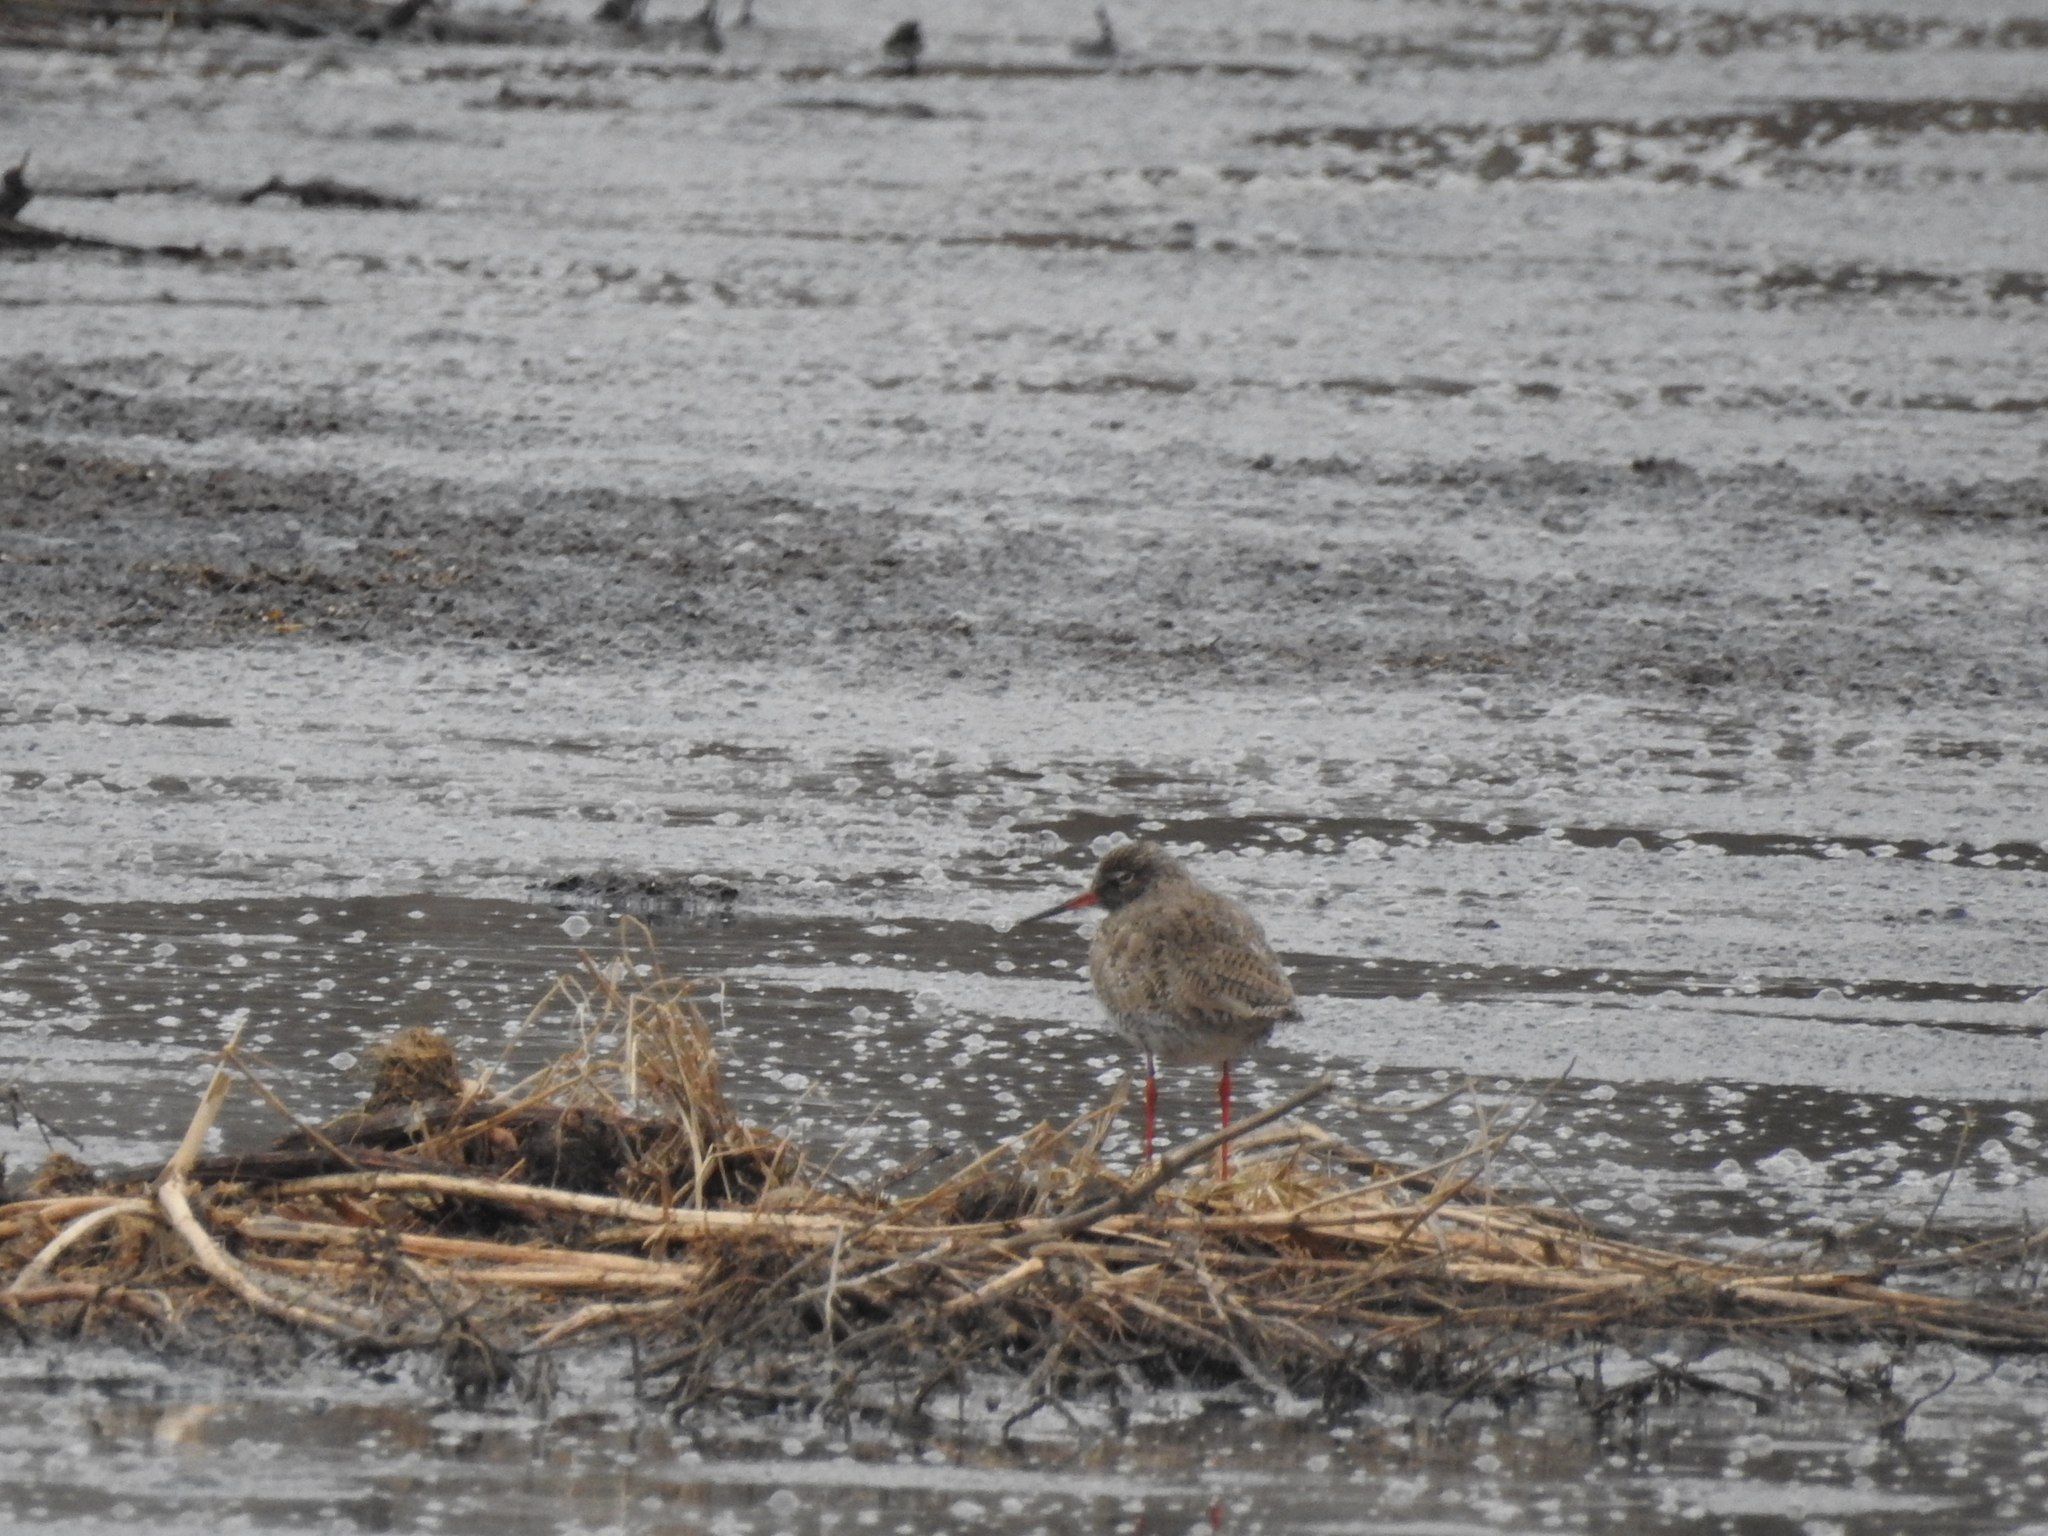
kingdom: Animalia
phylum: Chordata
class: Aves
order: Charadriiformes
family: Scolopacidae
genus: Tringa
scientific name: Tringa totanus
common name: Common redshank
